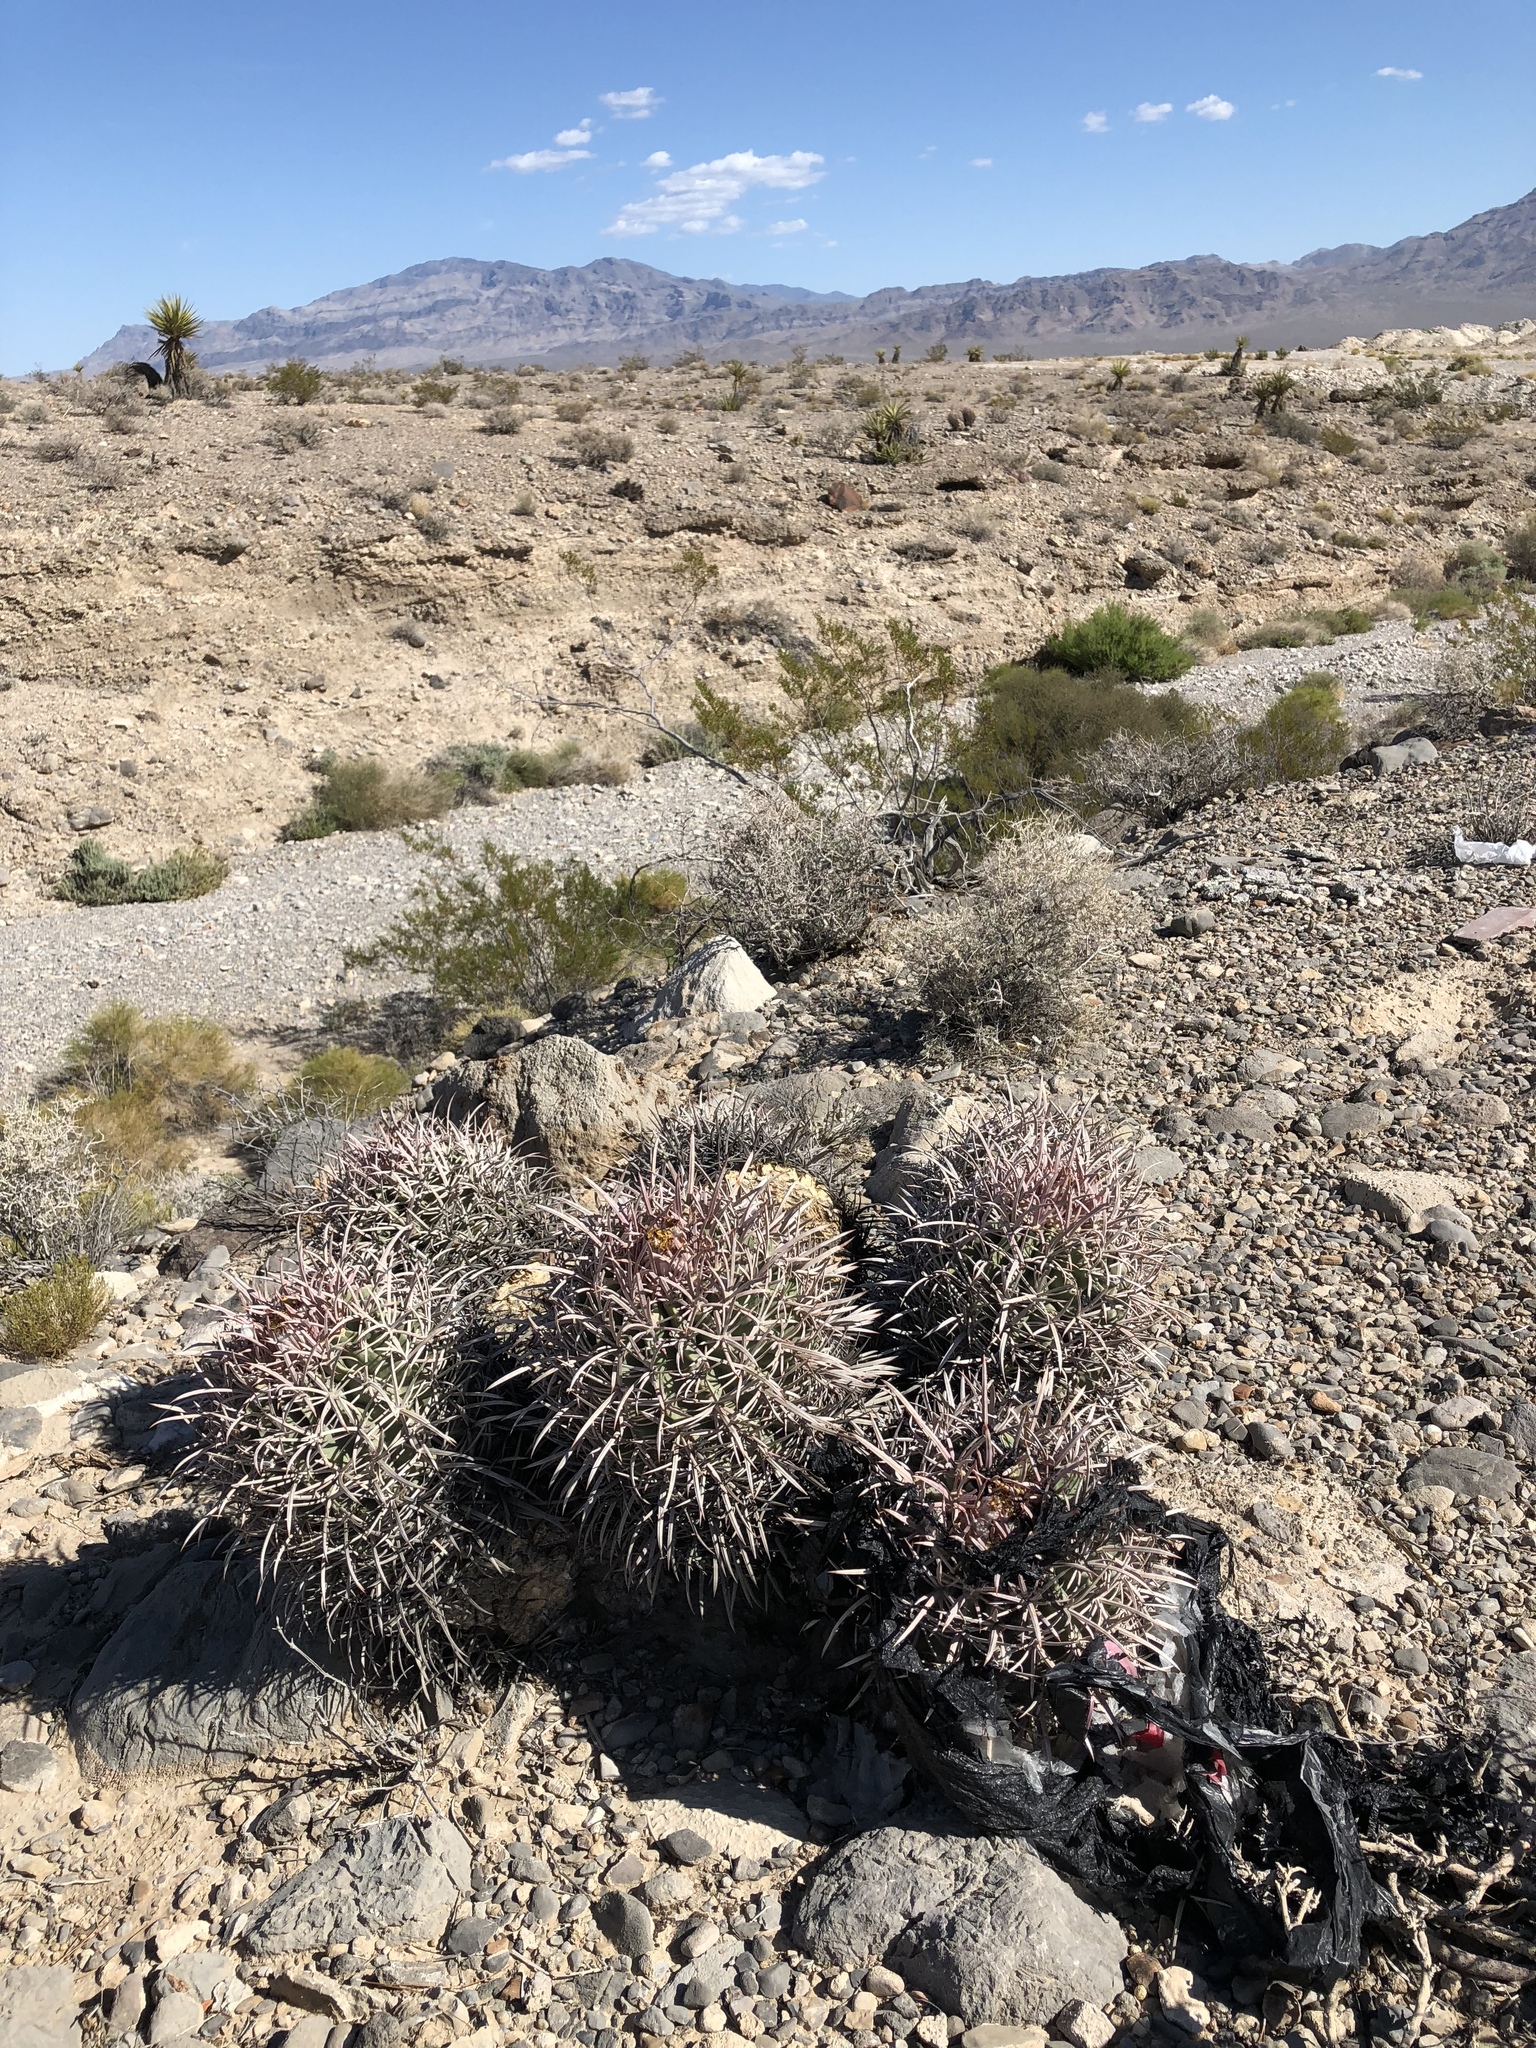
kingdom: Plantae
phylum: Tracheophyta
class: Magnoliopsida
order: Caryophyllales
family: Cactaceae
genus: Echinocactus
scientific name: Echinocactus polycephalus
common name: Cottontop cactus
